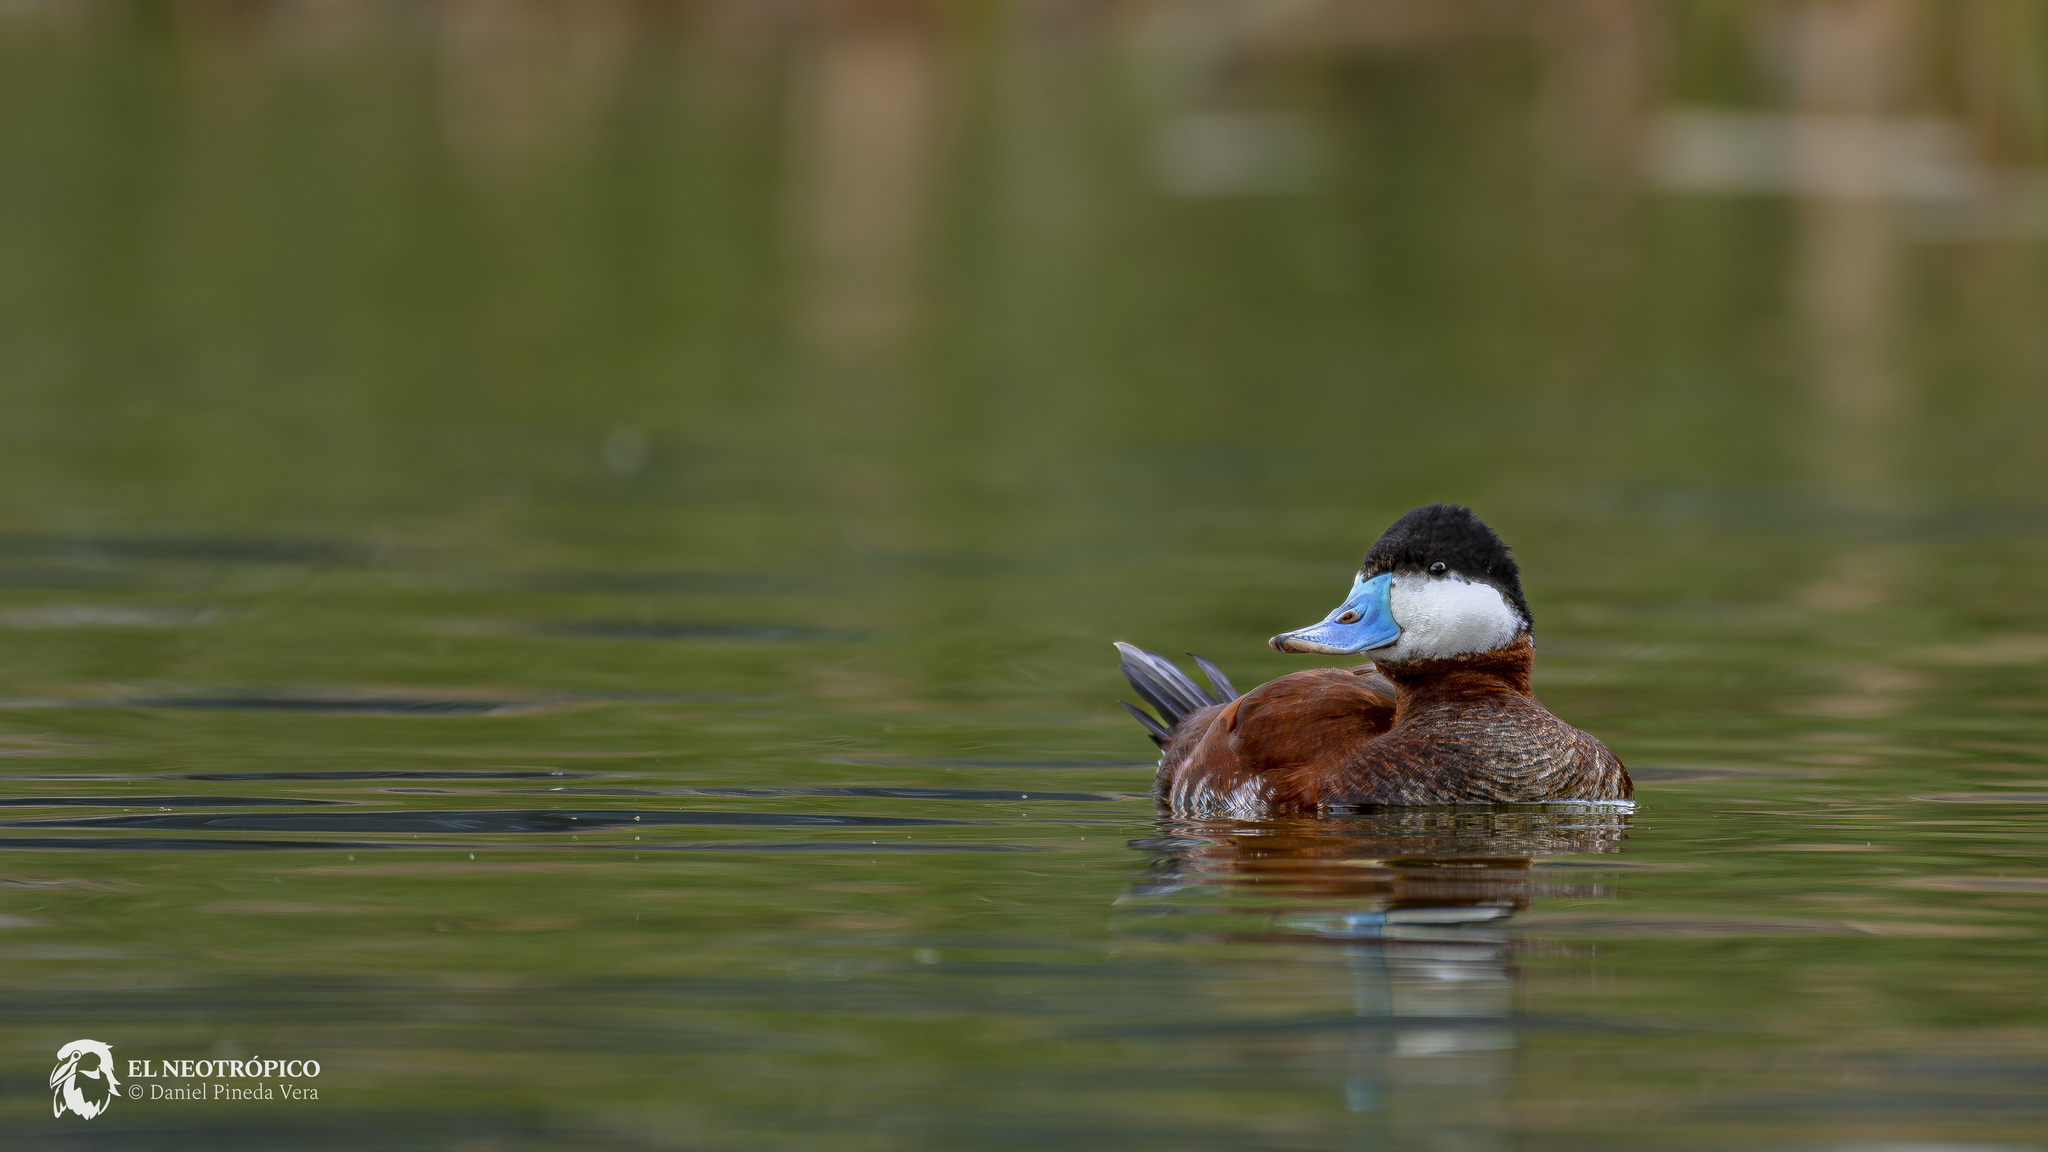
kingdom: Animalia
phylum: Chordata
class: Aves
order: Anseriformes
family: Anatidae
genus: Oxyura
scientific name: Oxyura jamaicensis
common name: Ruddy duck
